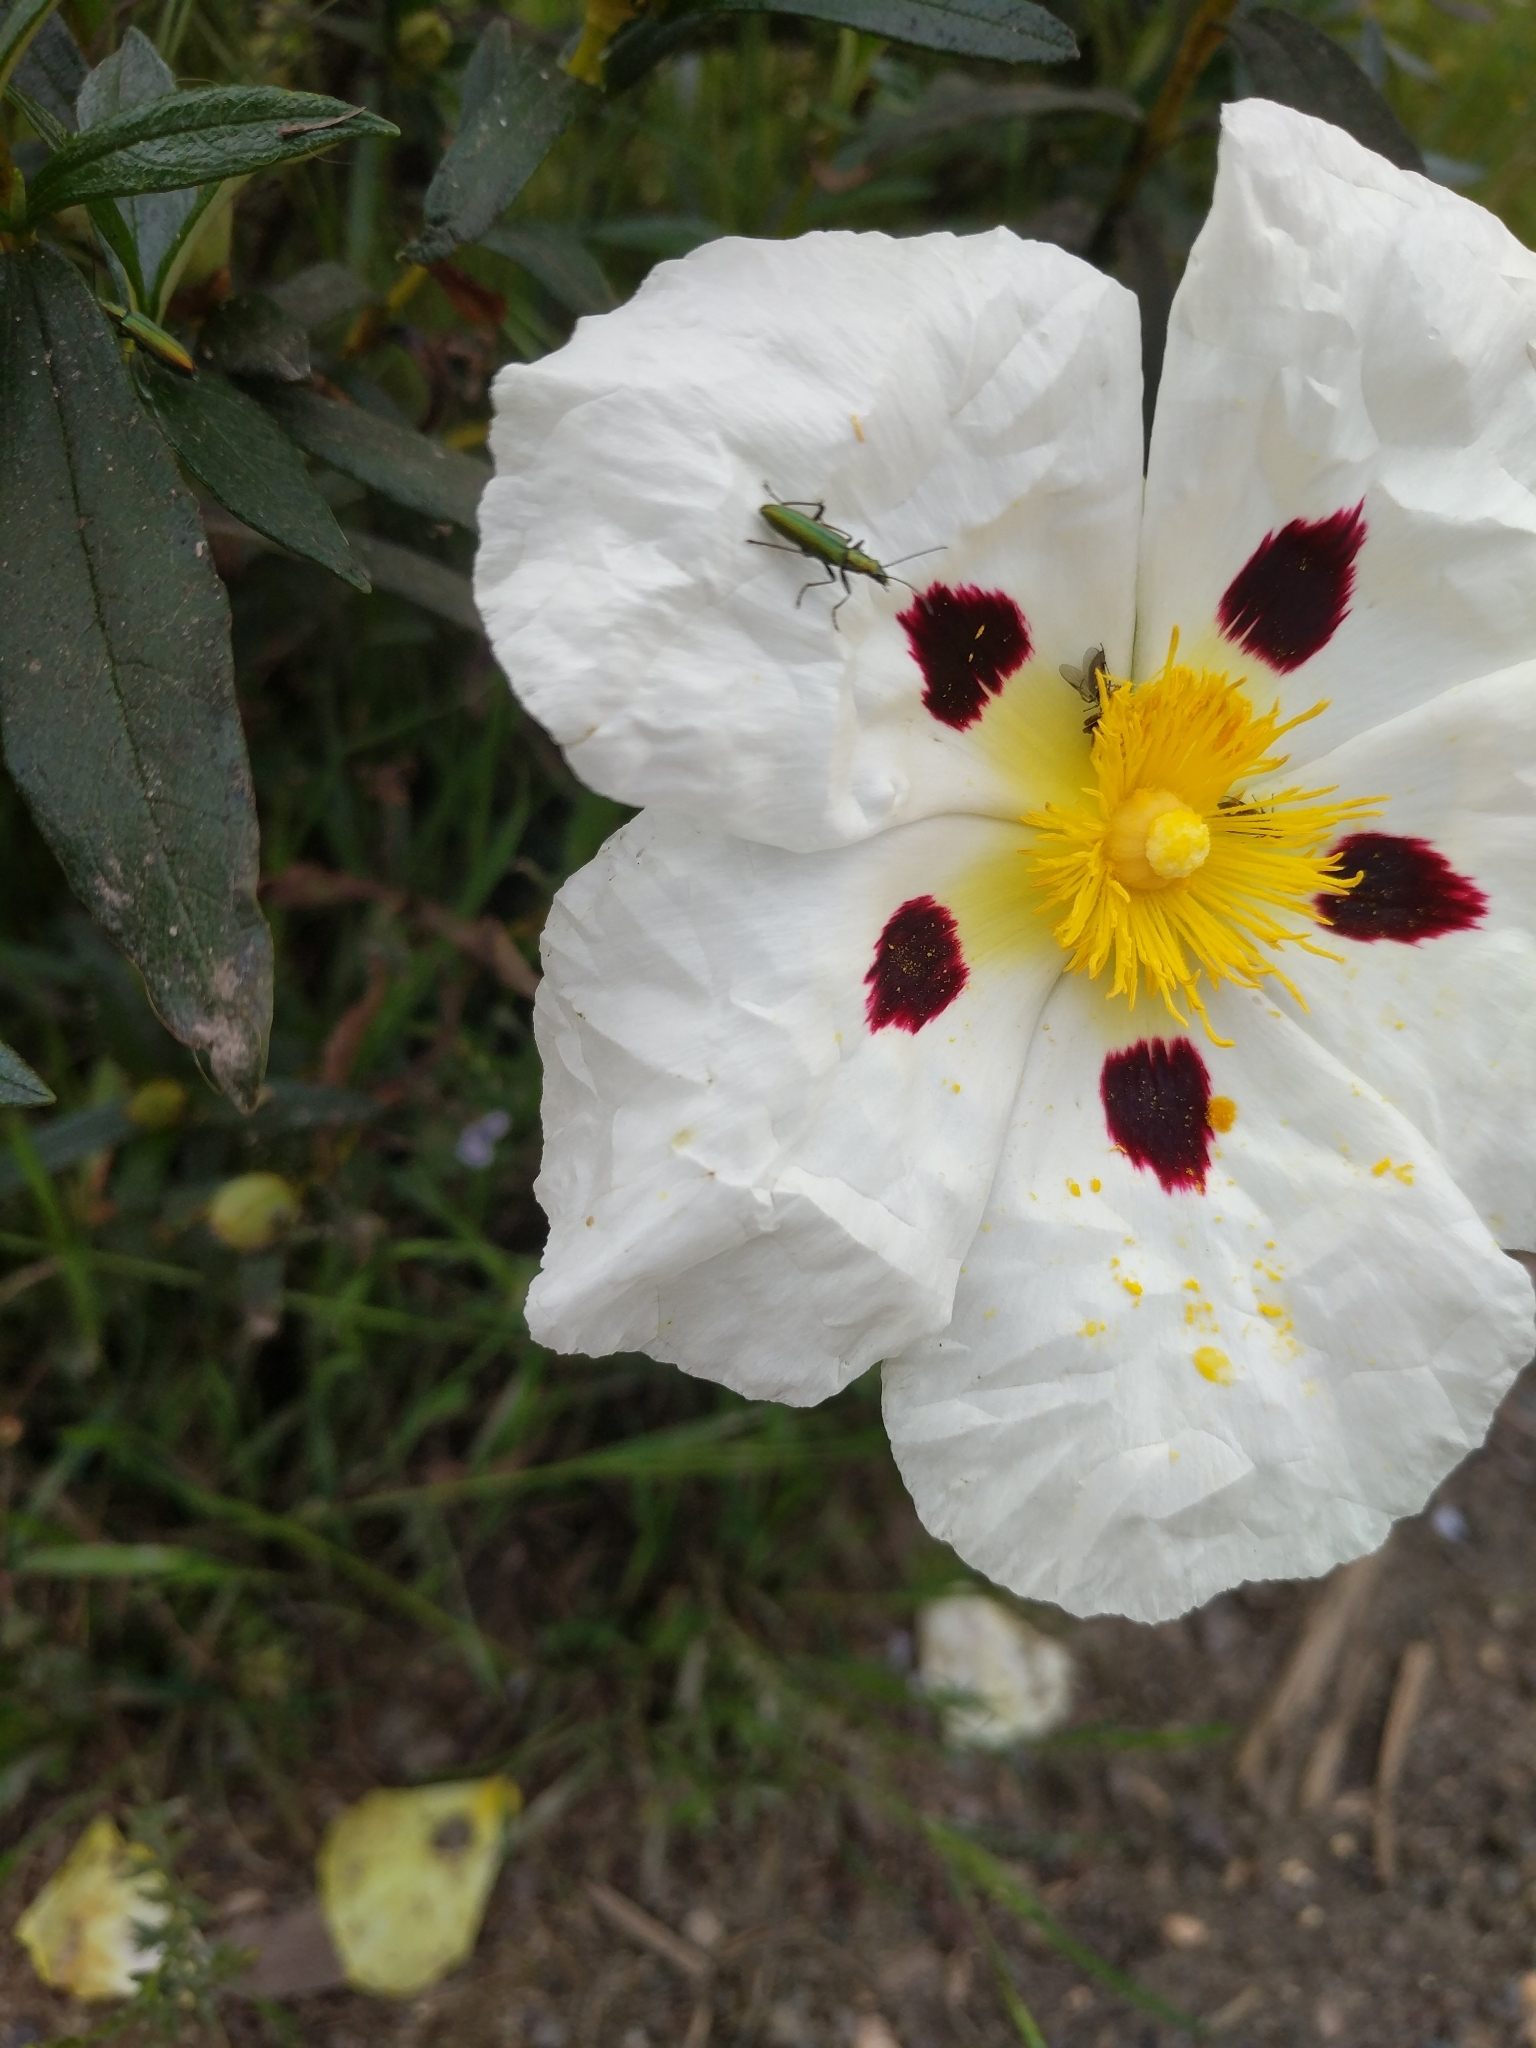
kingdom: Plantae
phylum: Tracheophyta
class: Magnoliopsida
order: Malvales
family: Cistaceae
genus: Cistus
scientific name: Cistus ladanifer
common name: Common gum cistus
